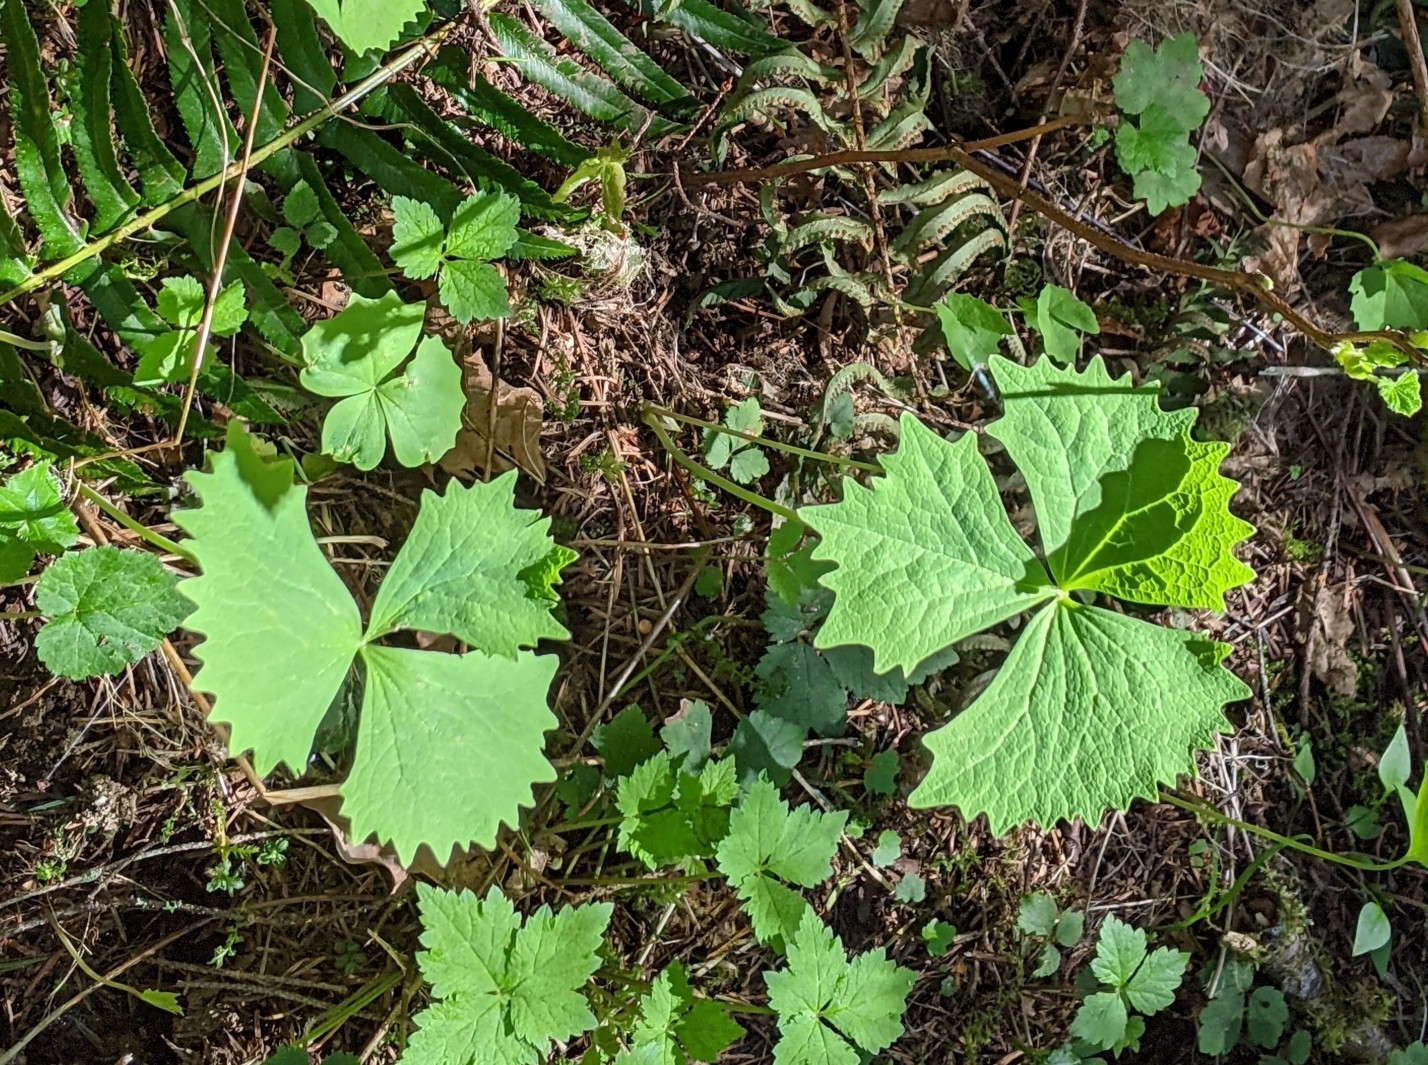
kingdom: Plantae
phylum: Tracheophyta
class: Magnoliopsida
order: Ranunculales
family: Berberidaceae
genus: Achlys
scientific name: Achlys californica
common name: California deer-foot
